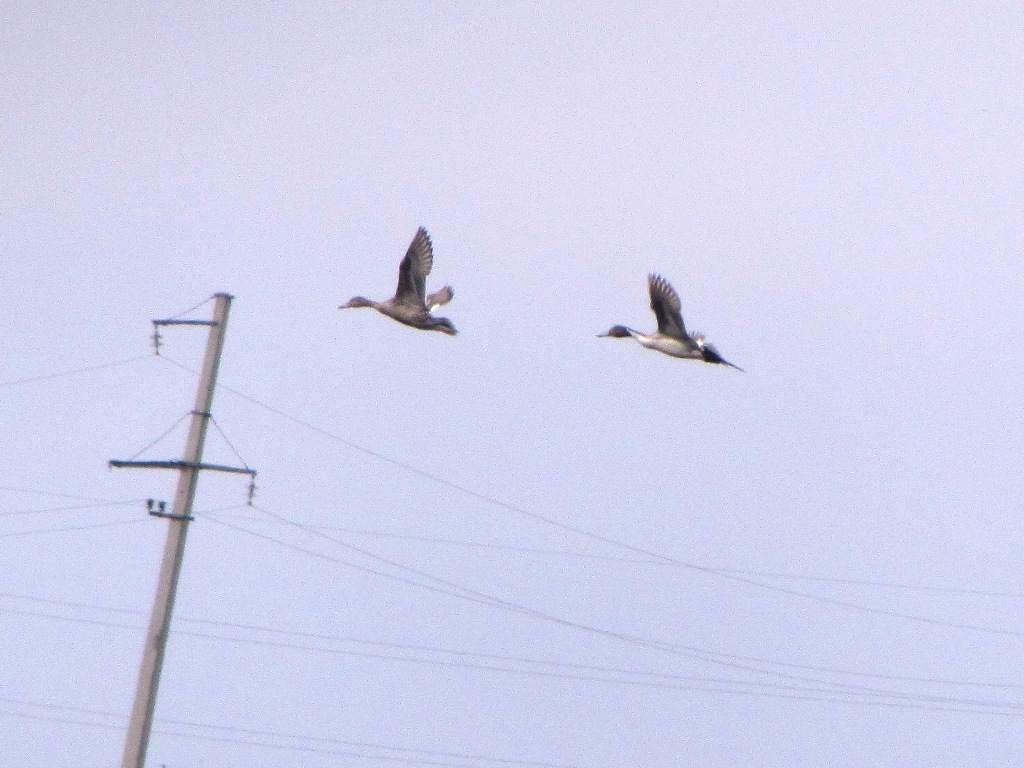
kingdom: Animalia
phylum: Chordata
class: Aves
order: Anseriformes
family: Anatidae
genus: Anas
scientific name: Anas acuta
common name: Northern pintail
